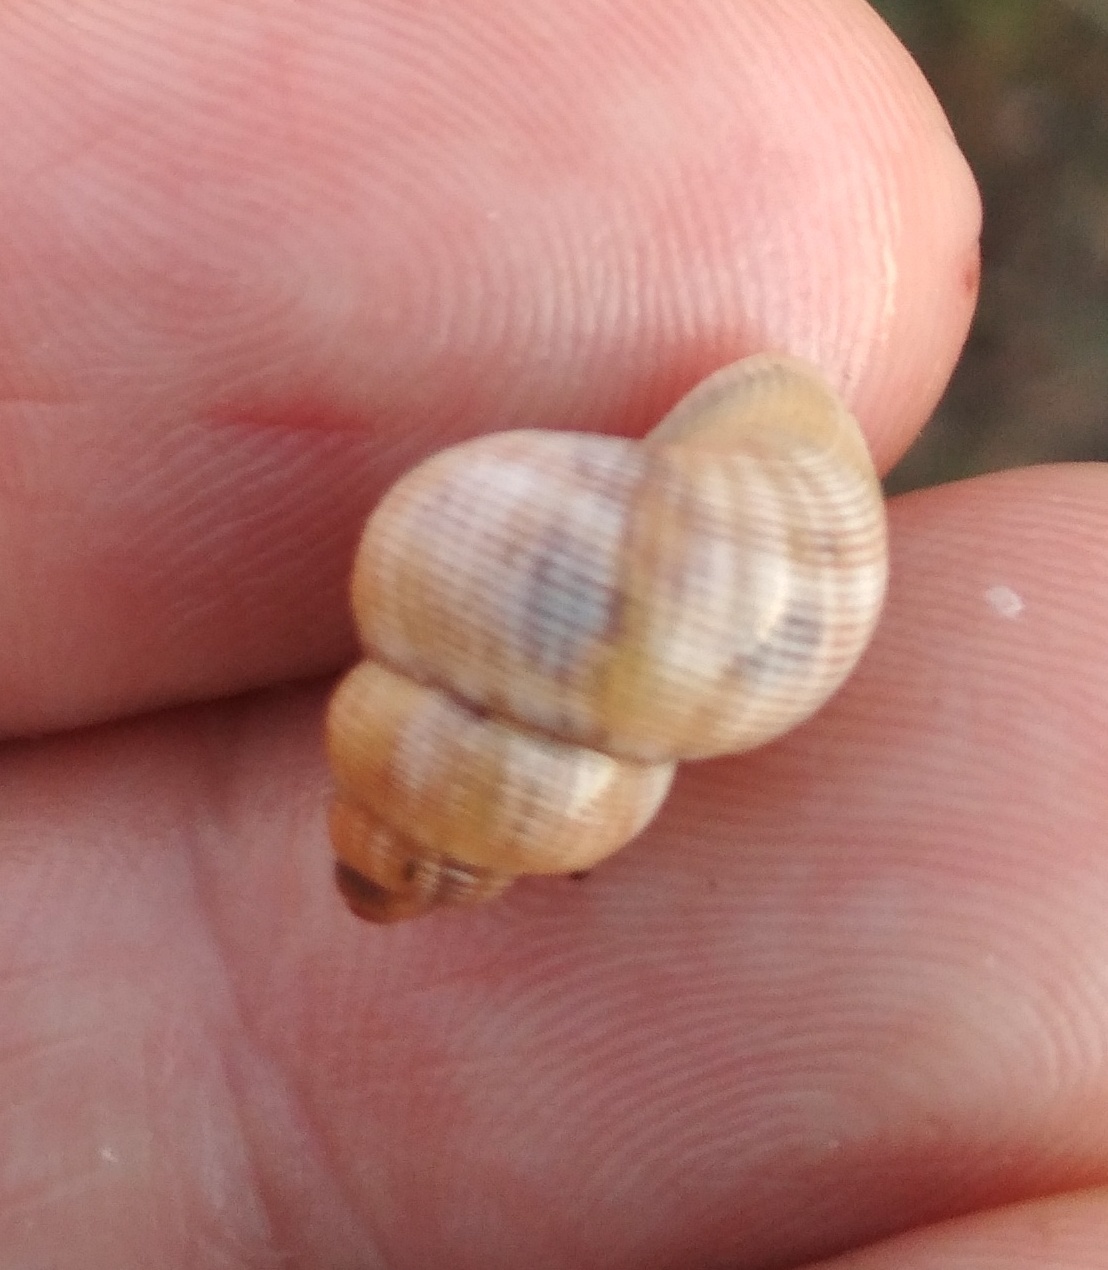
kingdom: Animalia
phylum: Mollusca
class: Gastropoda
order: Littorinimorpha
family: Pomatiidae
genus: Pomatias
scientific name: Pomatias elegans
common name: Red-mouthed snail
